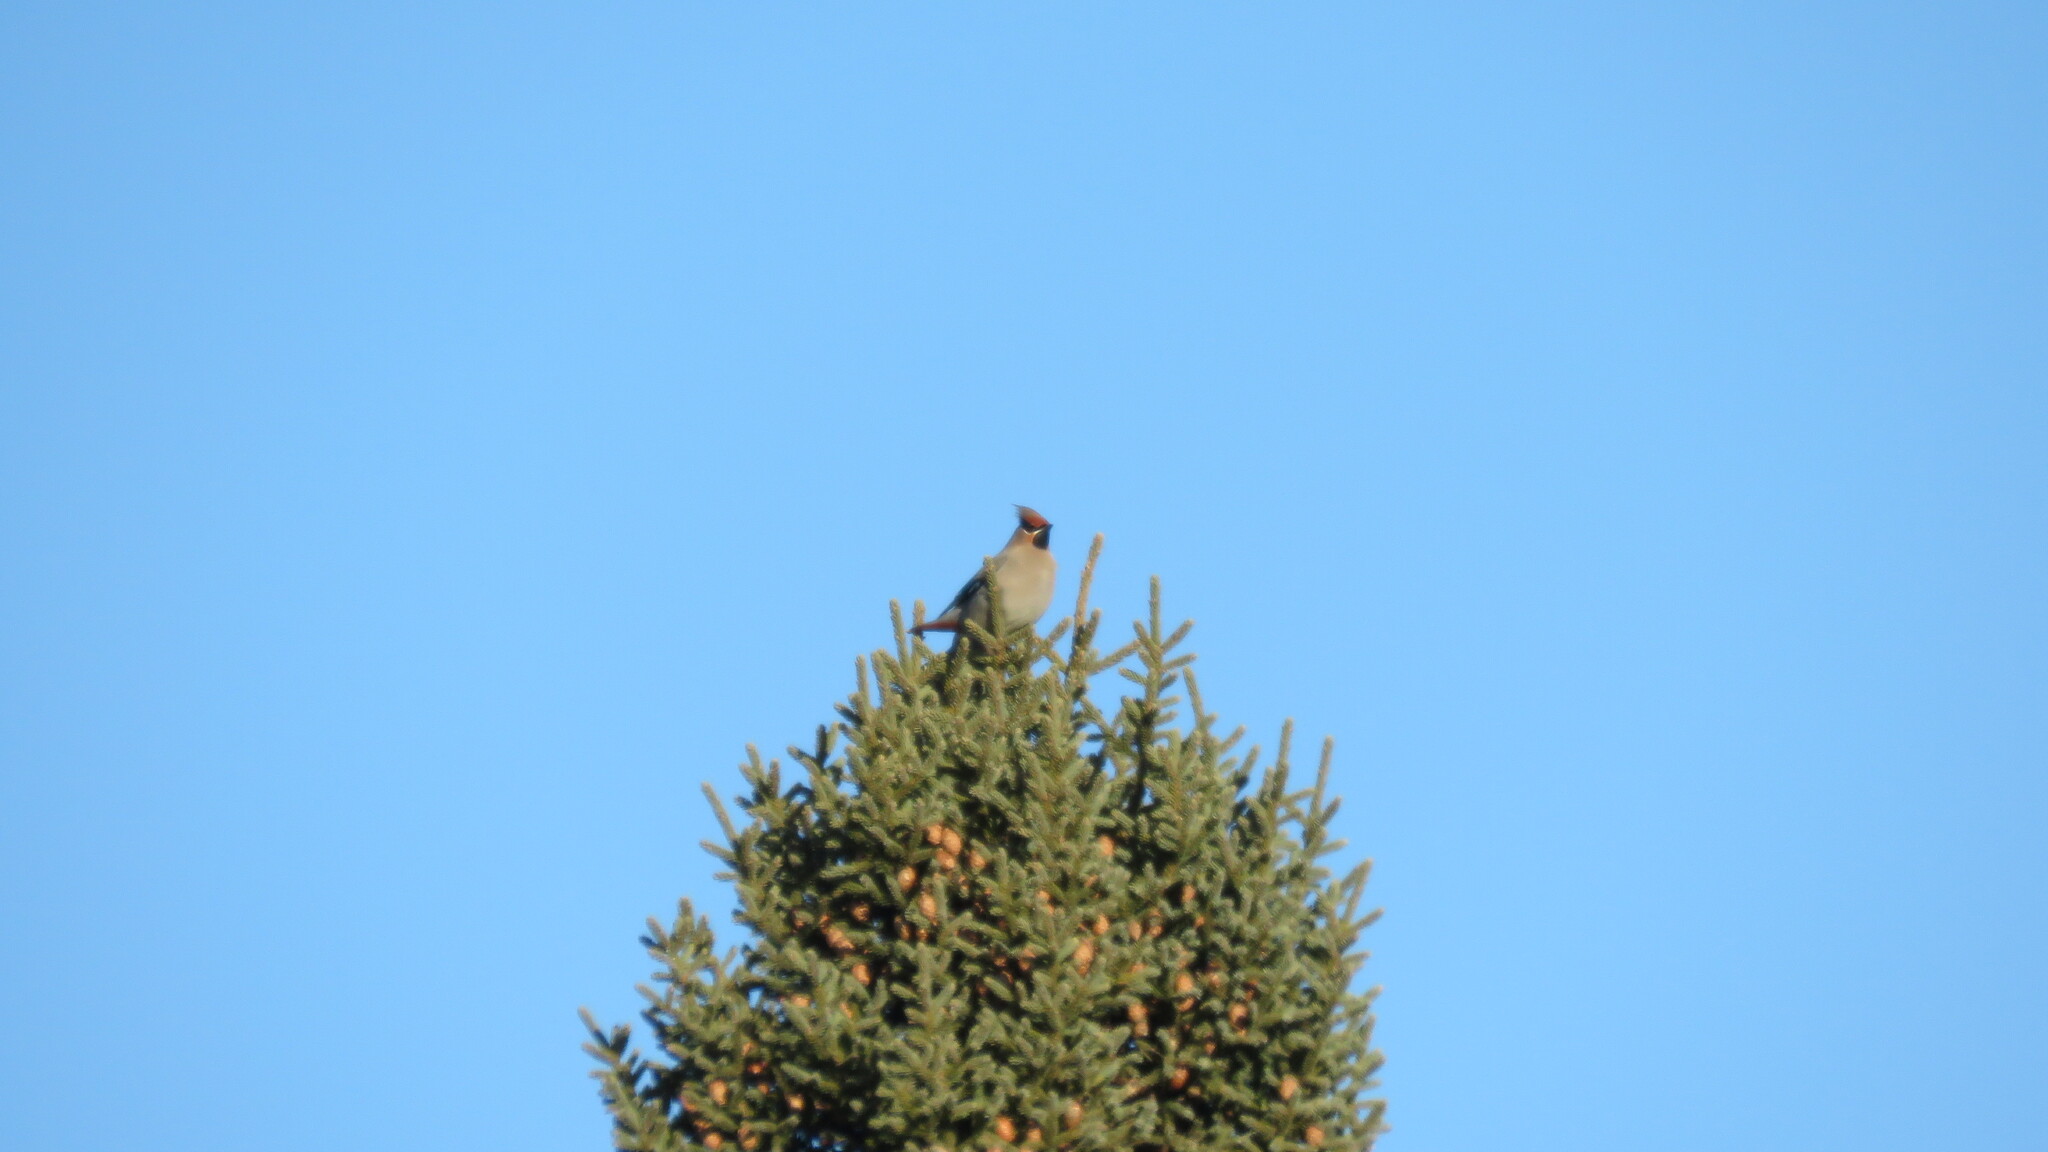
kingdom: Animalia
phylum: Chordata
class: Aves
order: Passeriformes
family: Bombycillidae
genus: Bombycilla
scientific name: Bombycilla garrulus
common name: Bohemian waxwing
